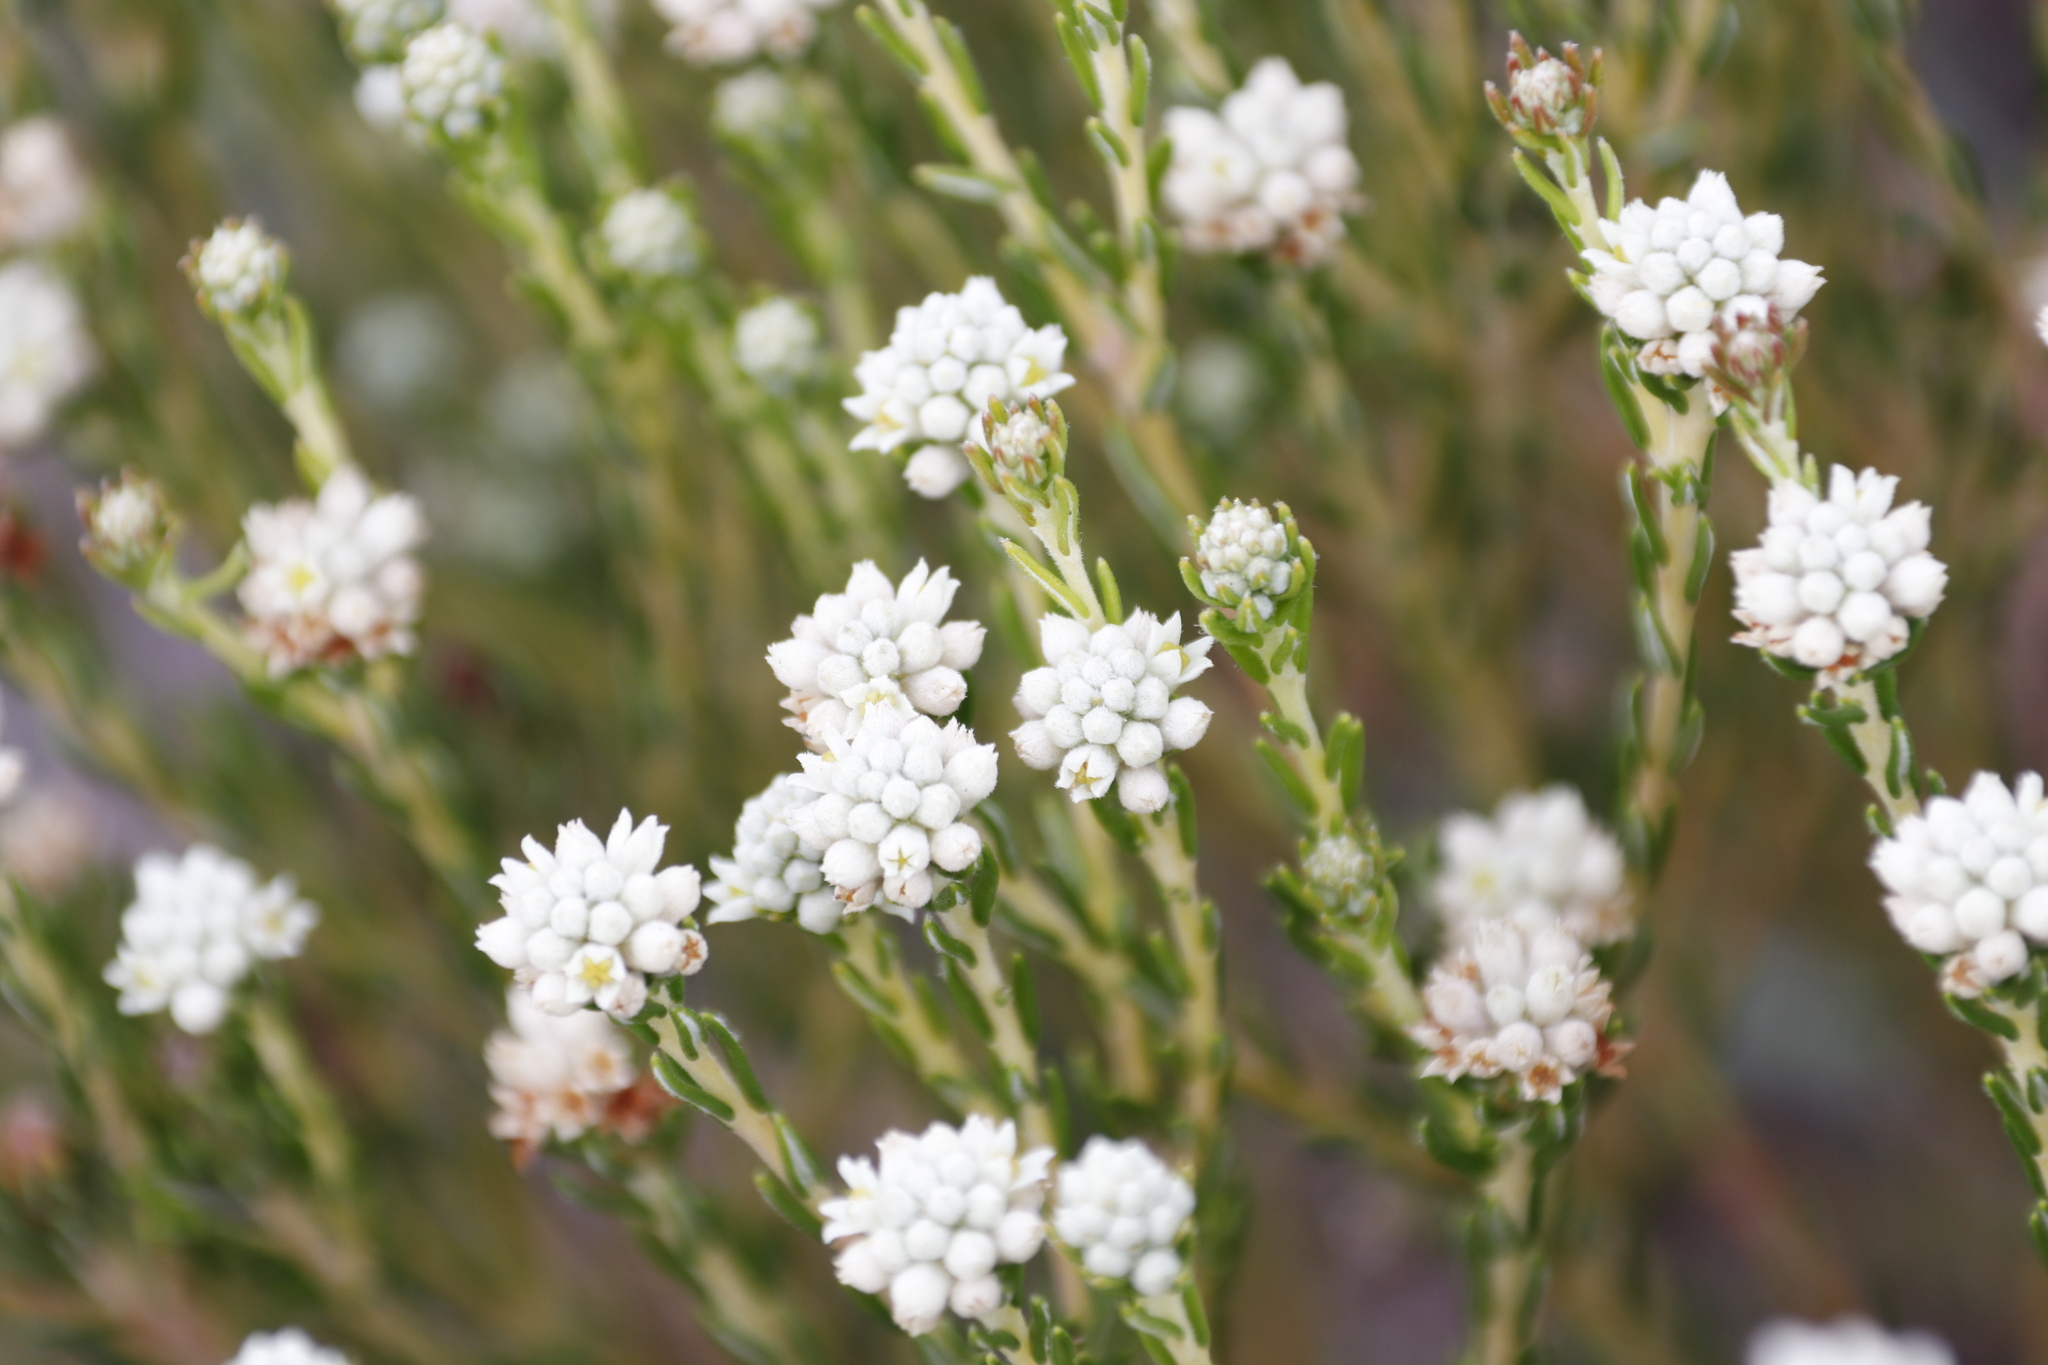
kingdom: Plantae
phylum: Tracheophyta
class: Magnoliopsida
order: Rosales
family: Rhamnaceae
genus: Phylica
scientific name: Phylica ericoides
